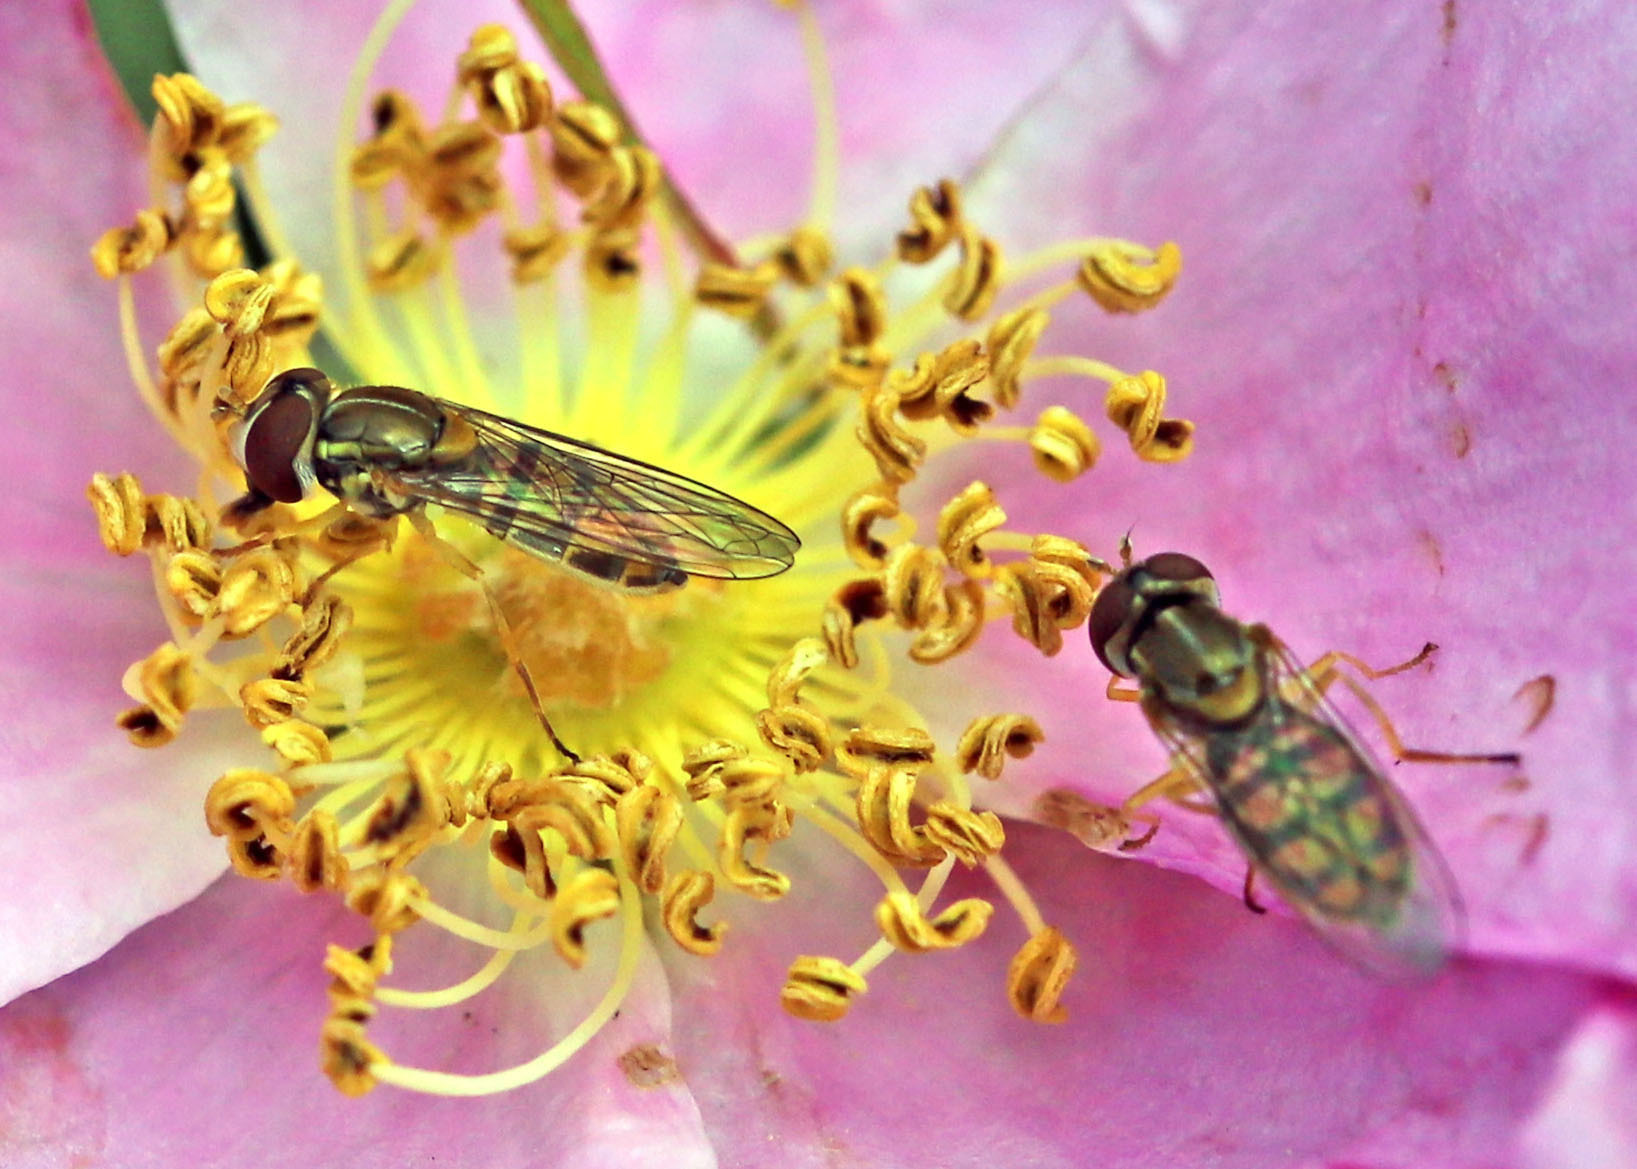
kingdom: Animalia
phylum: Arthropoda
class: Insecta
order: Diptera
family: Syrphidae
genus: Toxomerus
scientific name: Toxomerus marginatus
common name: Syrphid fly
